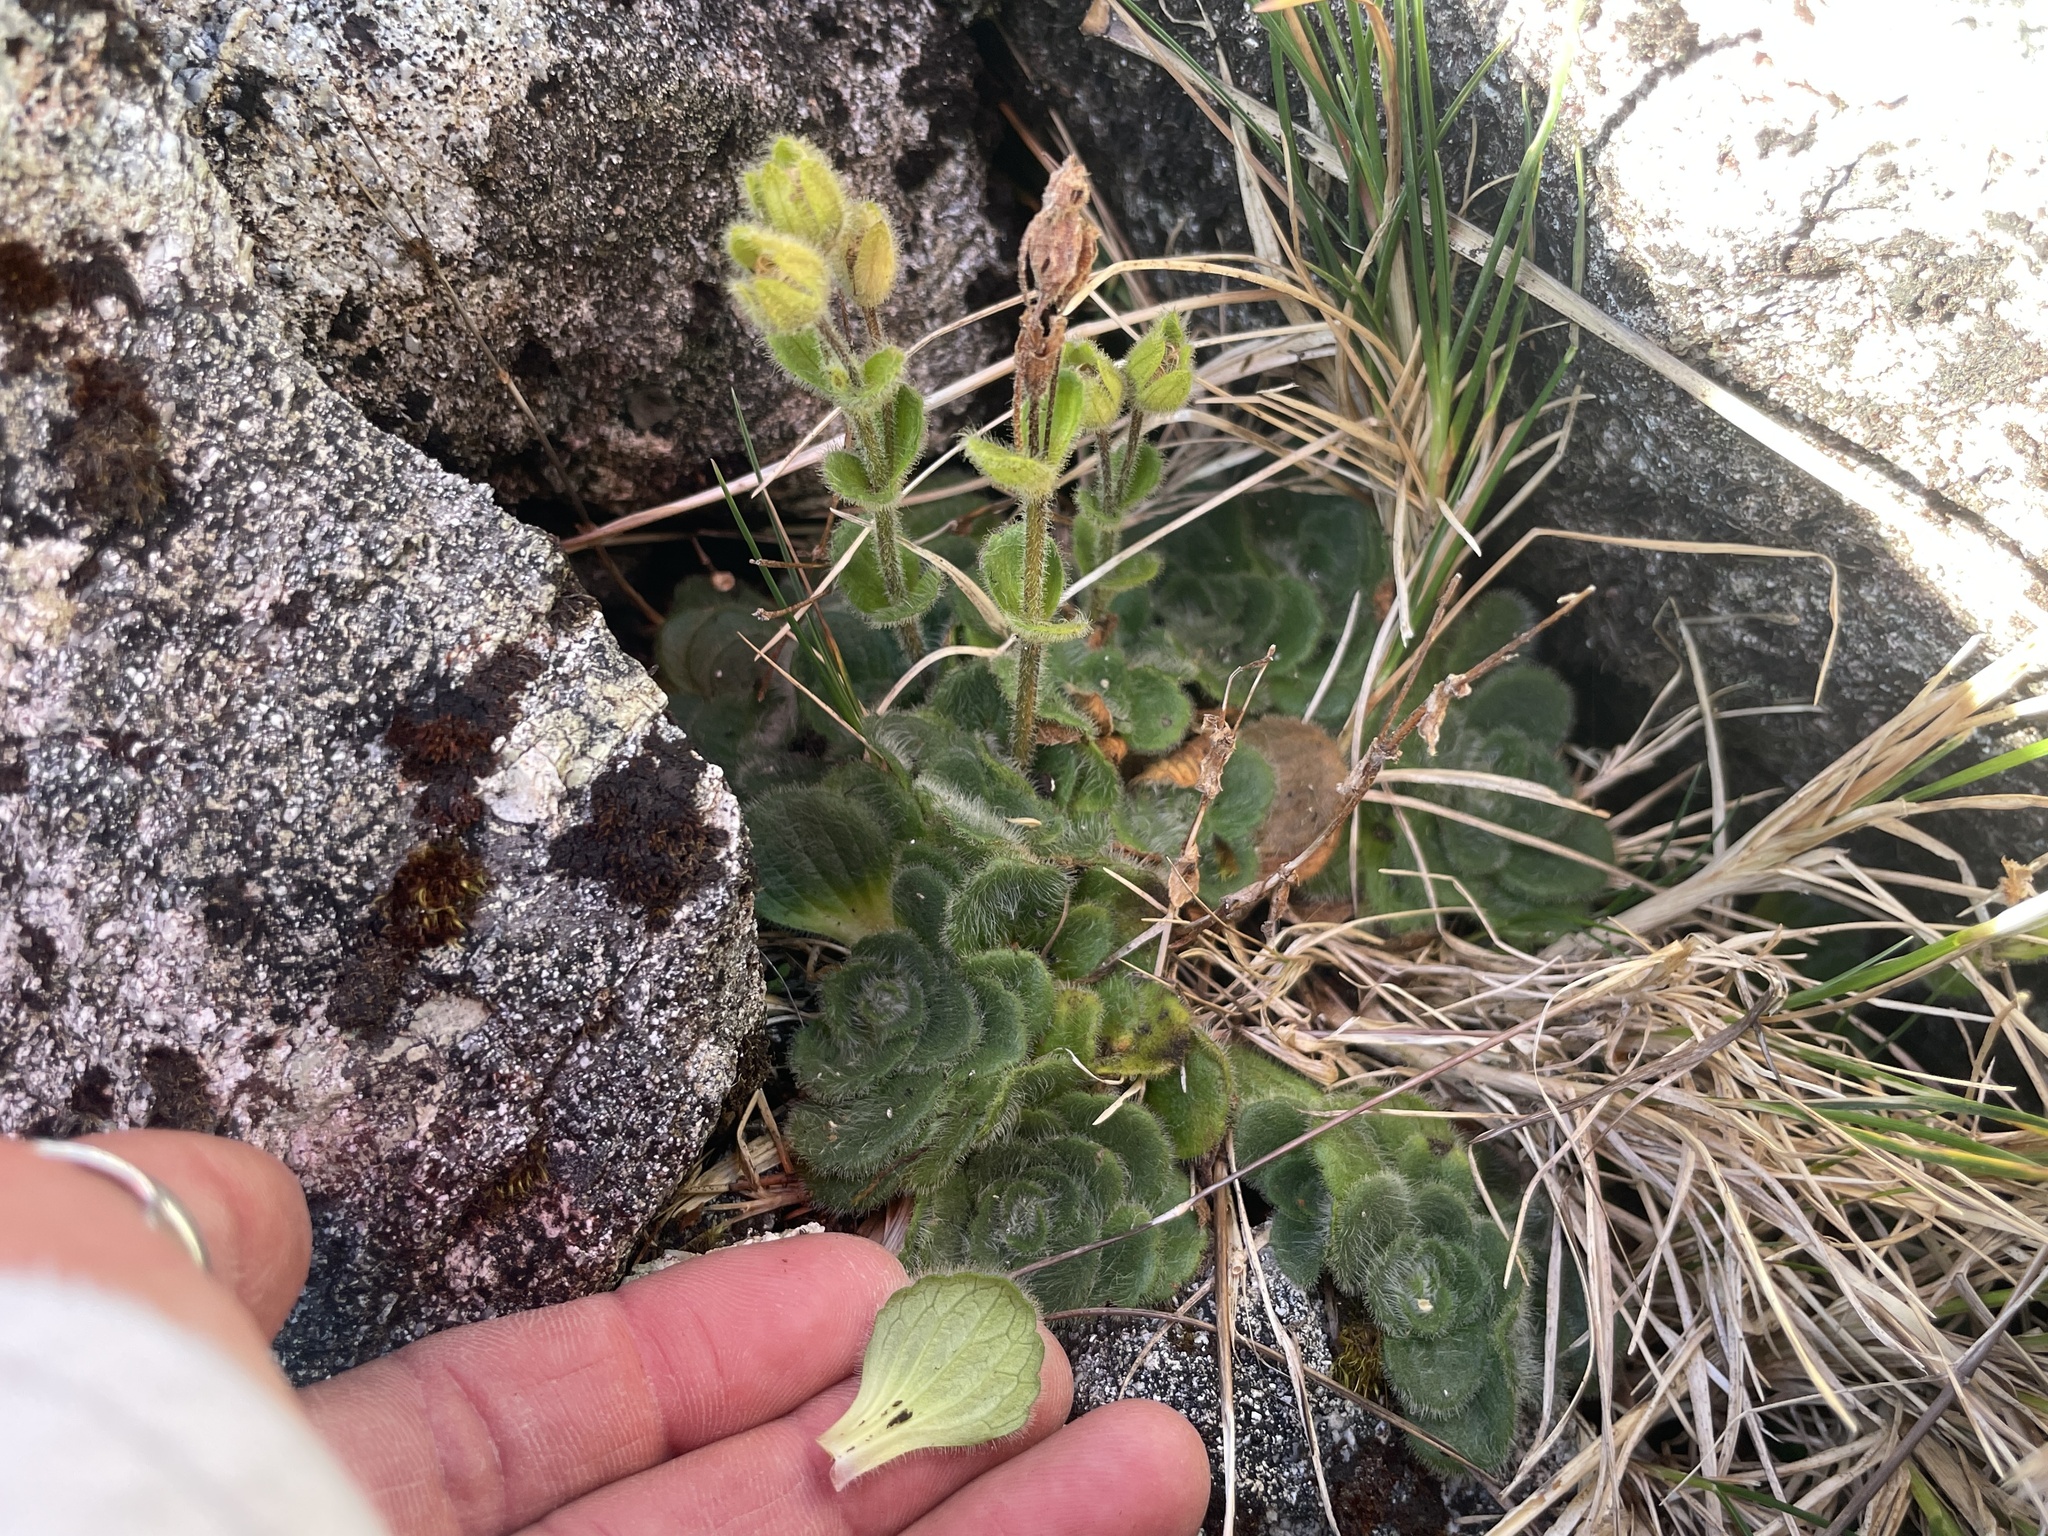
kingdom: Plantae
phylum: Tracheophyta
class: Magnoliopsida
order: Lamiales
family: Plantaginaceae
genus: Ourisia
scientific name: Ourisia confertifolia
